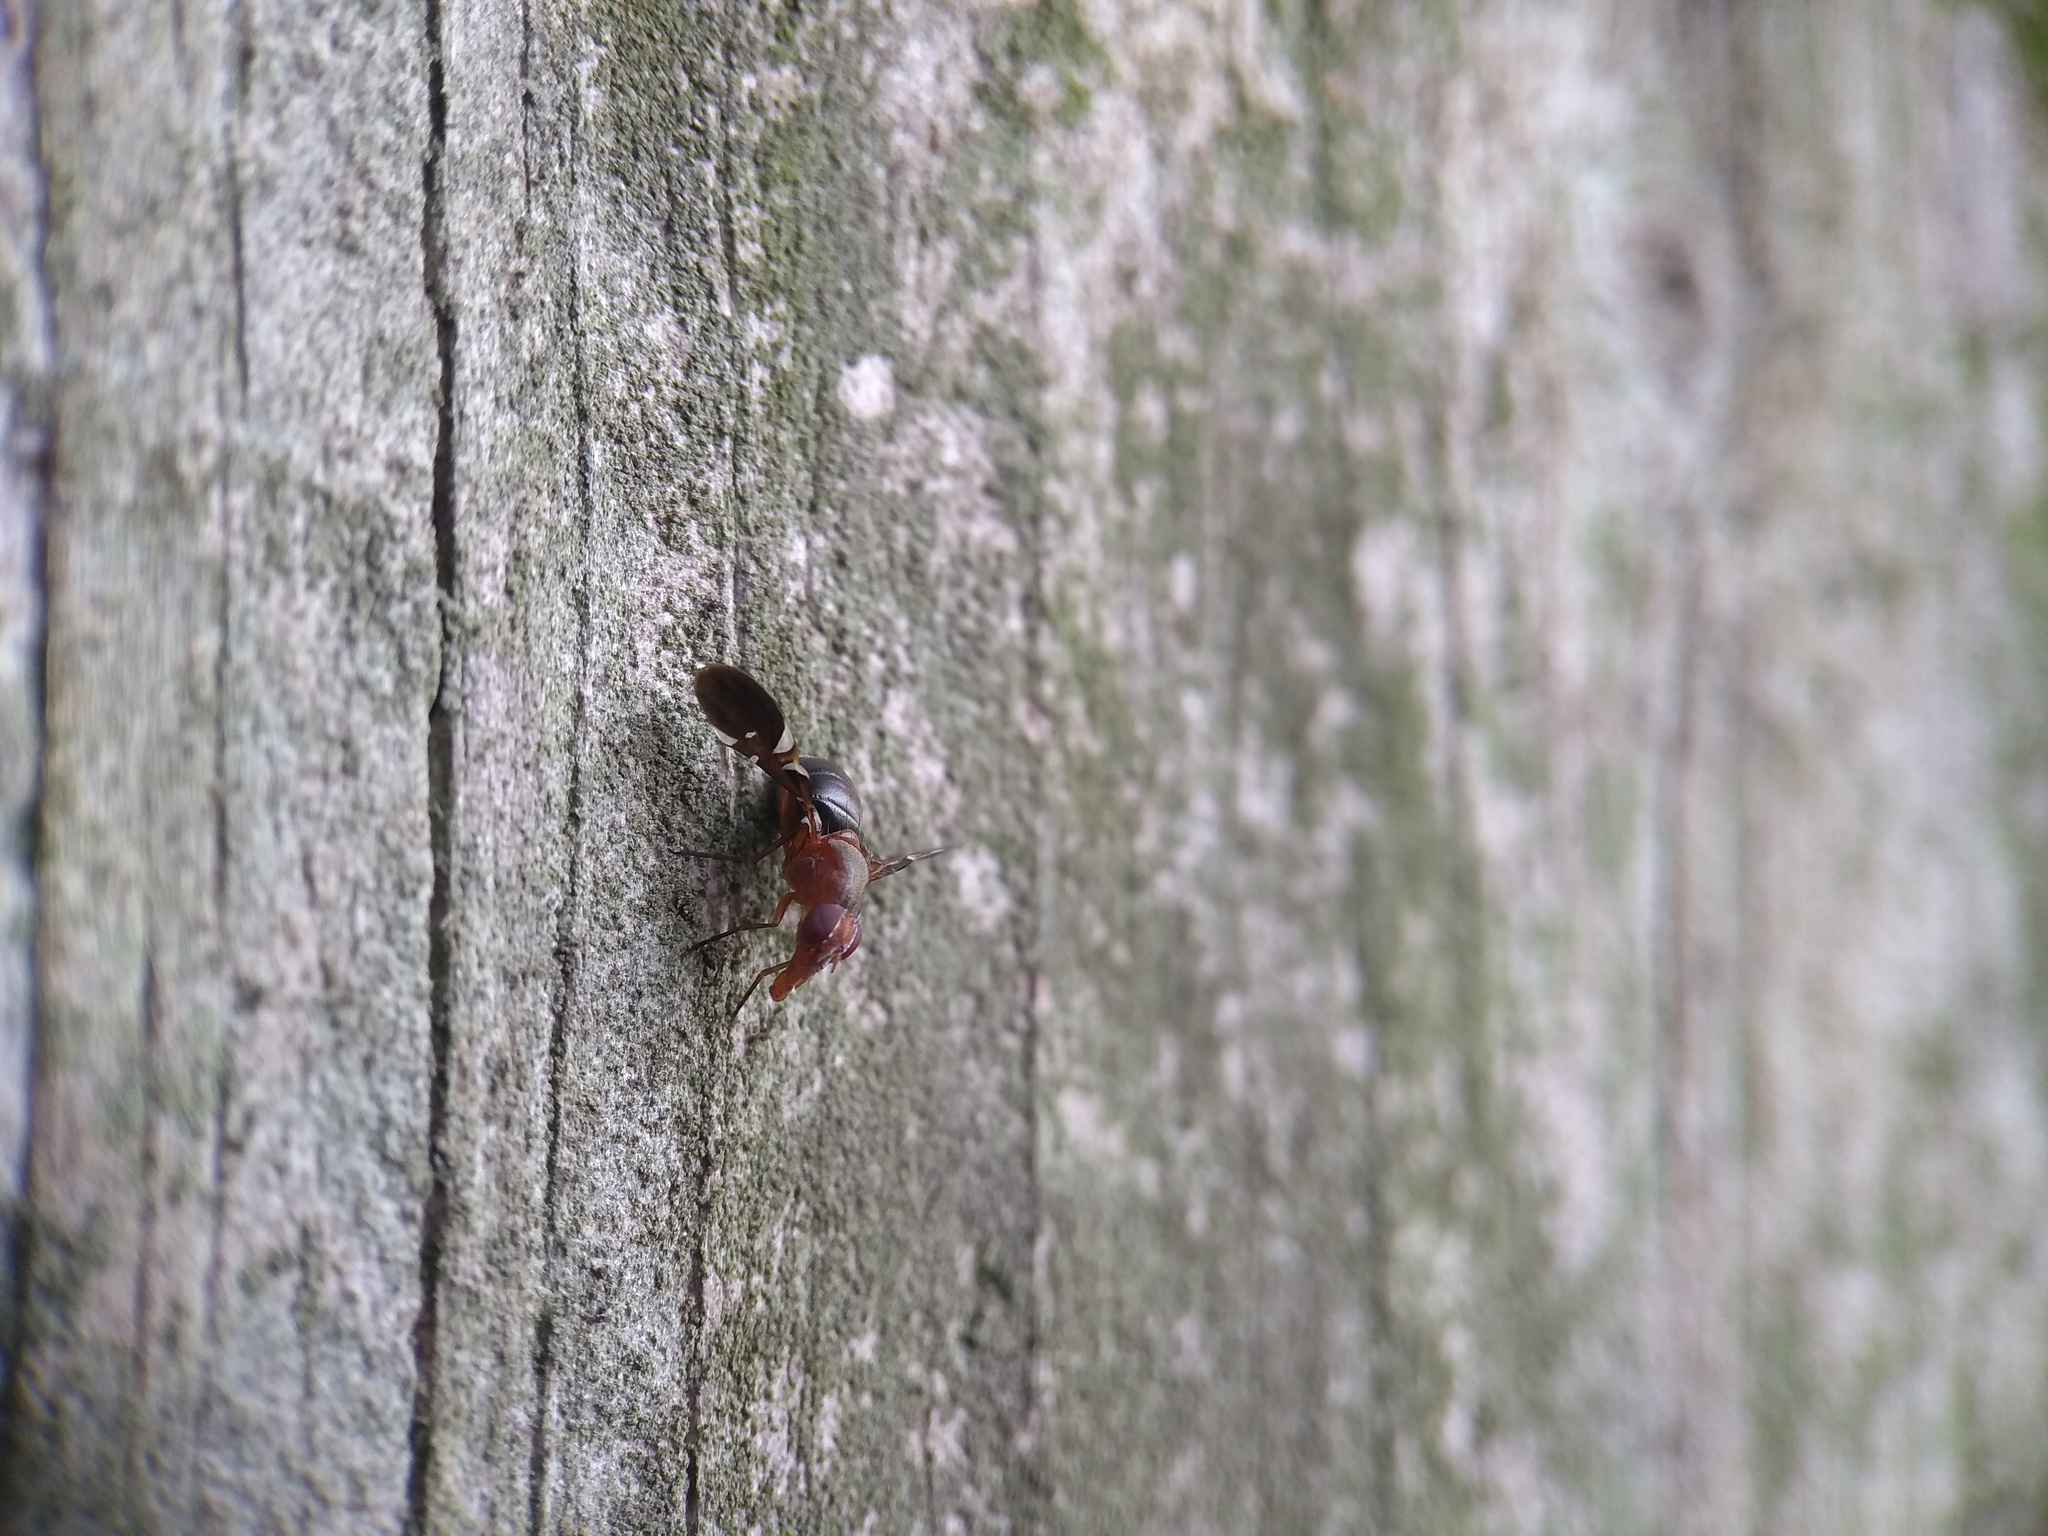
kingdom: Animalia
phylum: Arthropoda
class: Insecta
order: Diptera
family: Ulidiidae
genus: Delphinia
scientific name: Delphinia picta
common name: Common picture-winged fly
